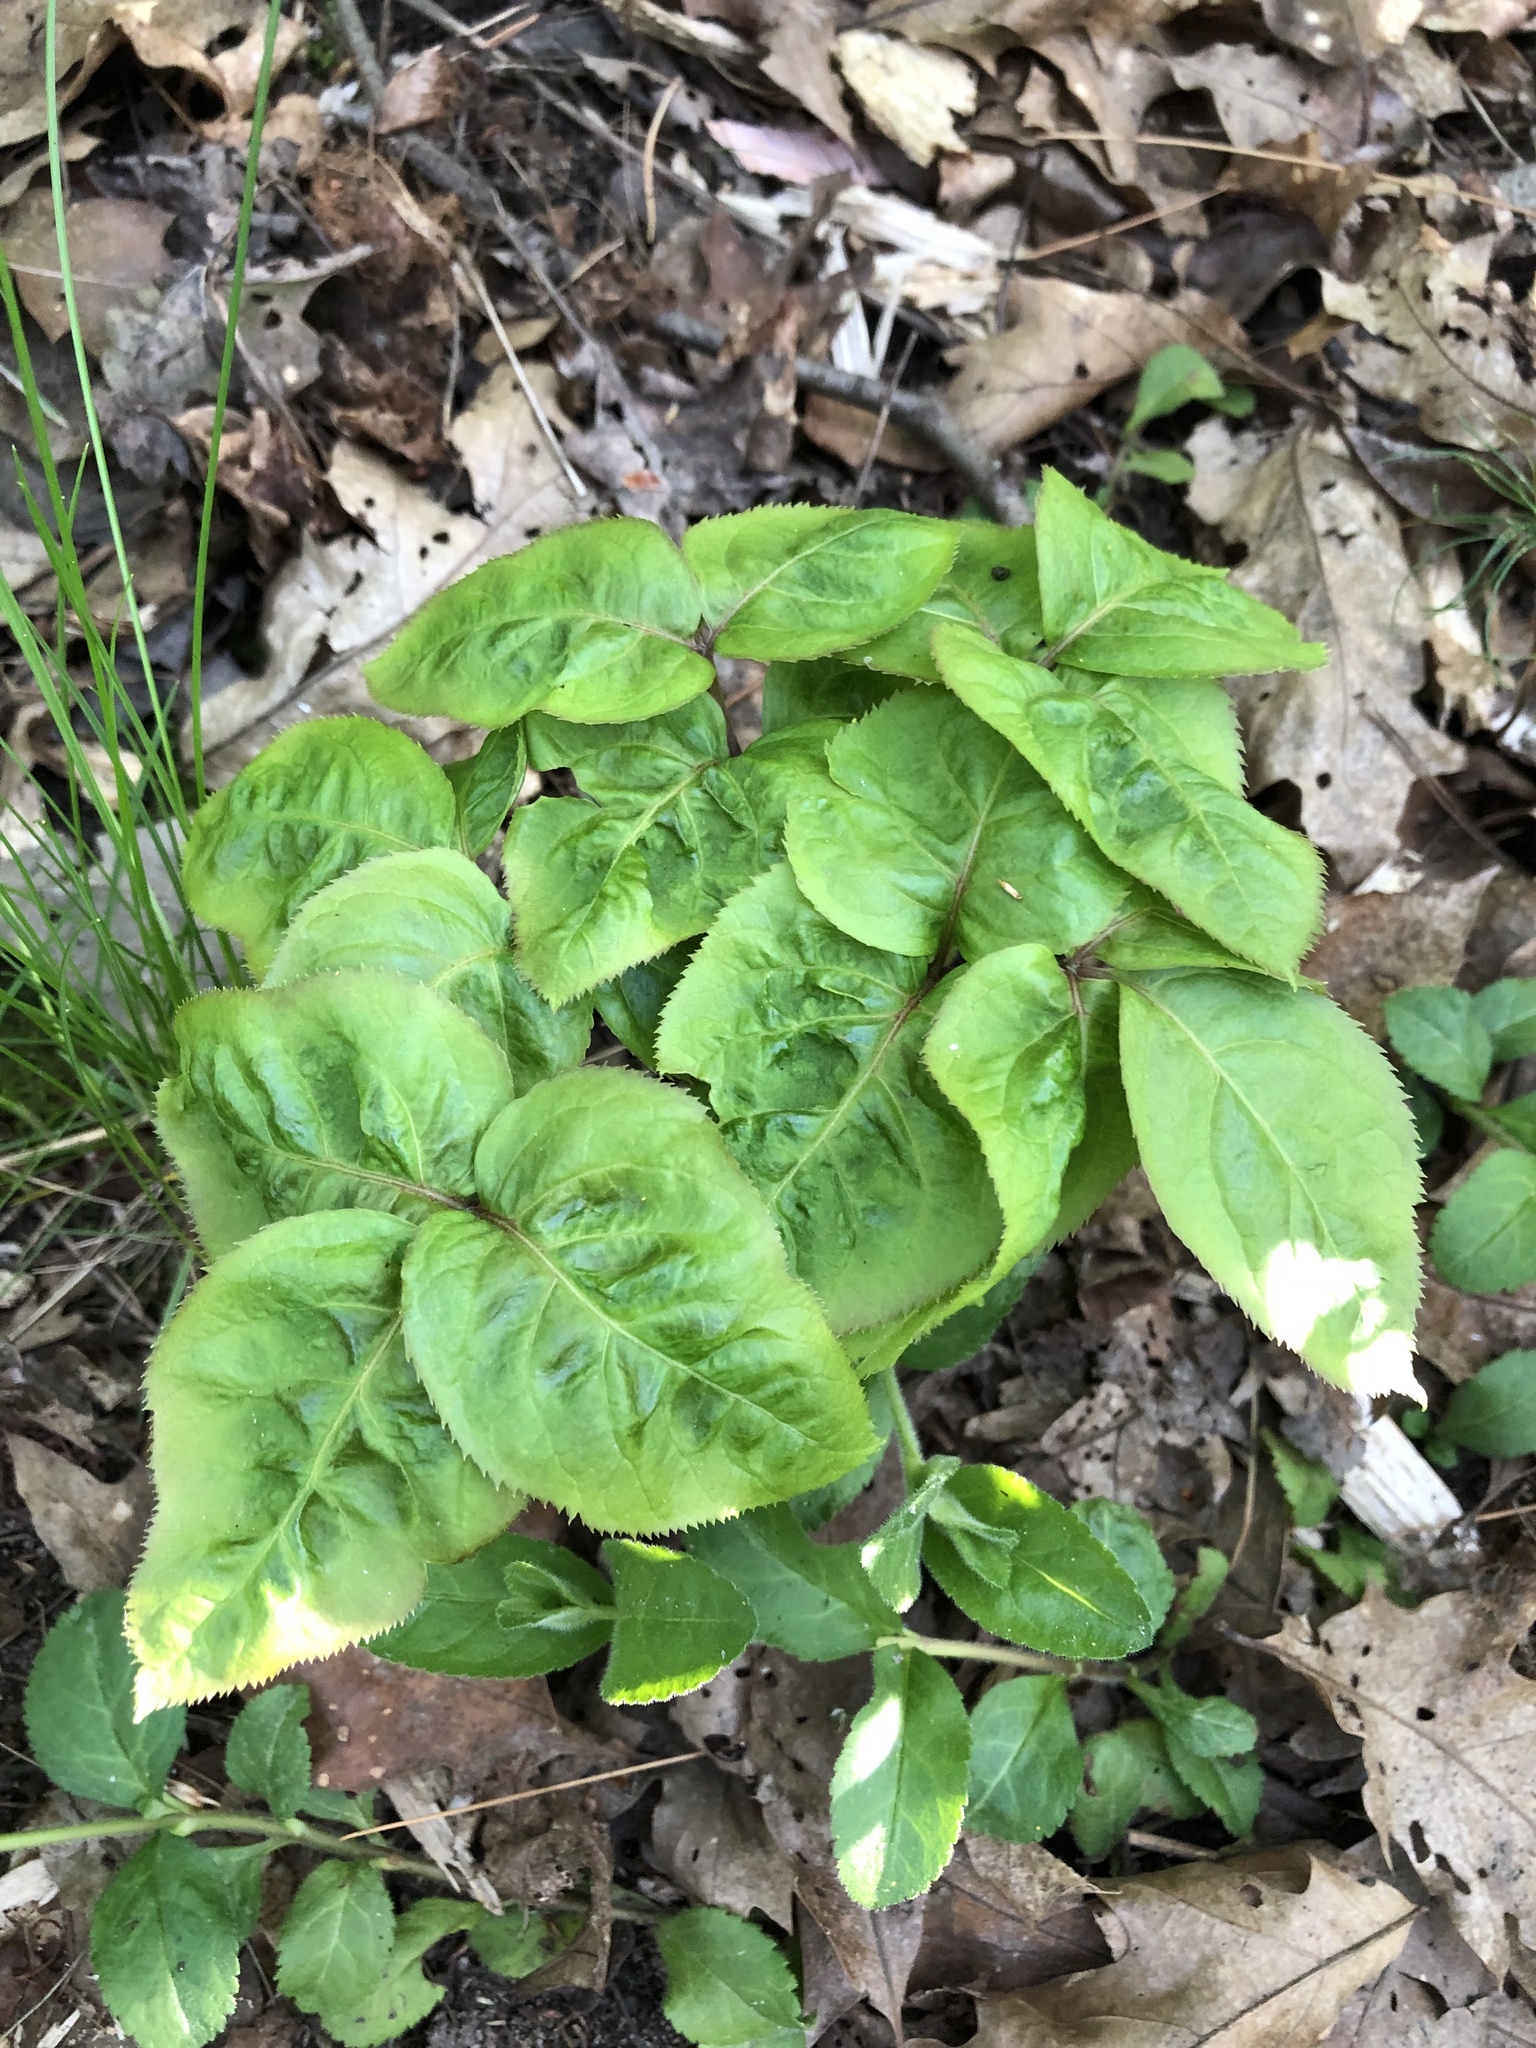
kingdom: Plantae
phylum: Tracheophyta
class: Magnoliopsida
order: Apiales
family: Araliaceae
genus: Aralia
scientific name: Aralia nudicaulis
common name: Wild sarsaparilla
